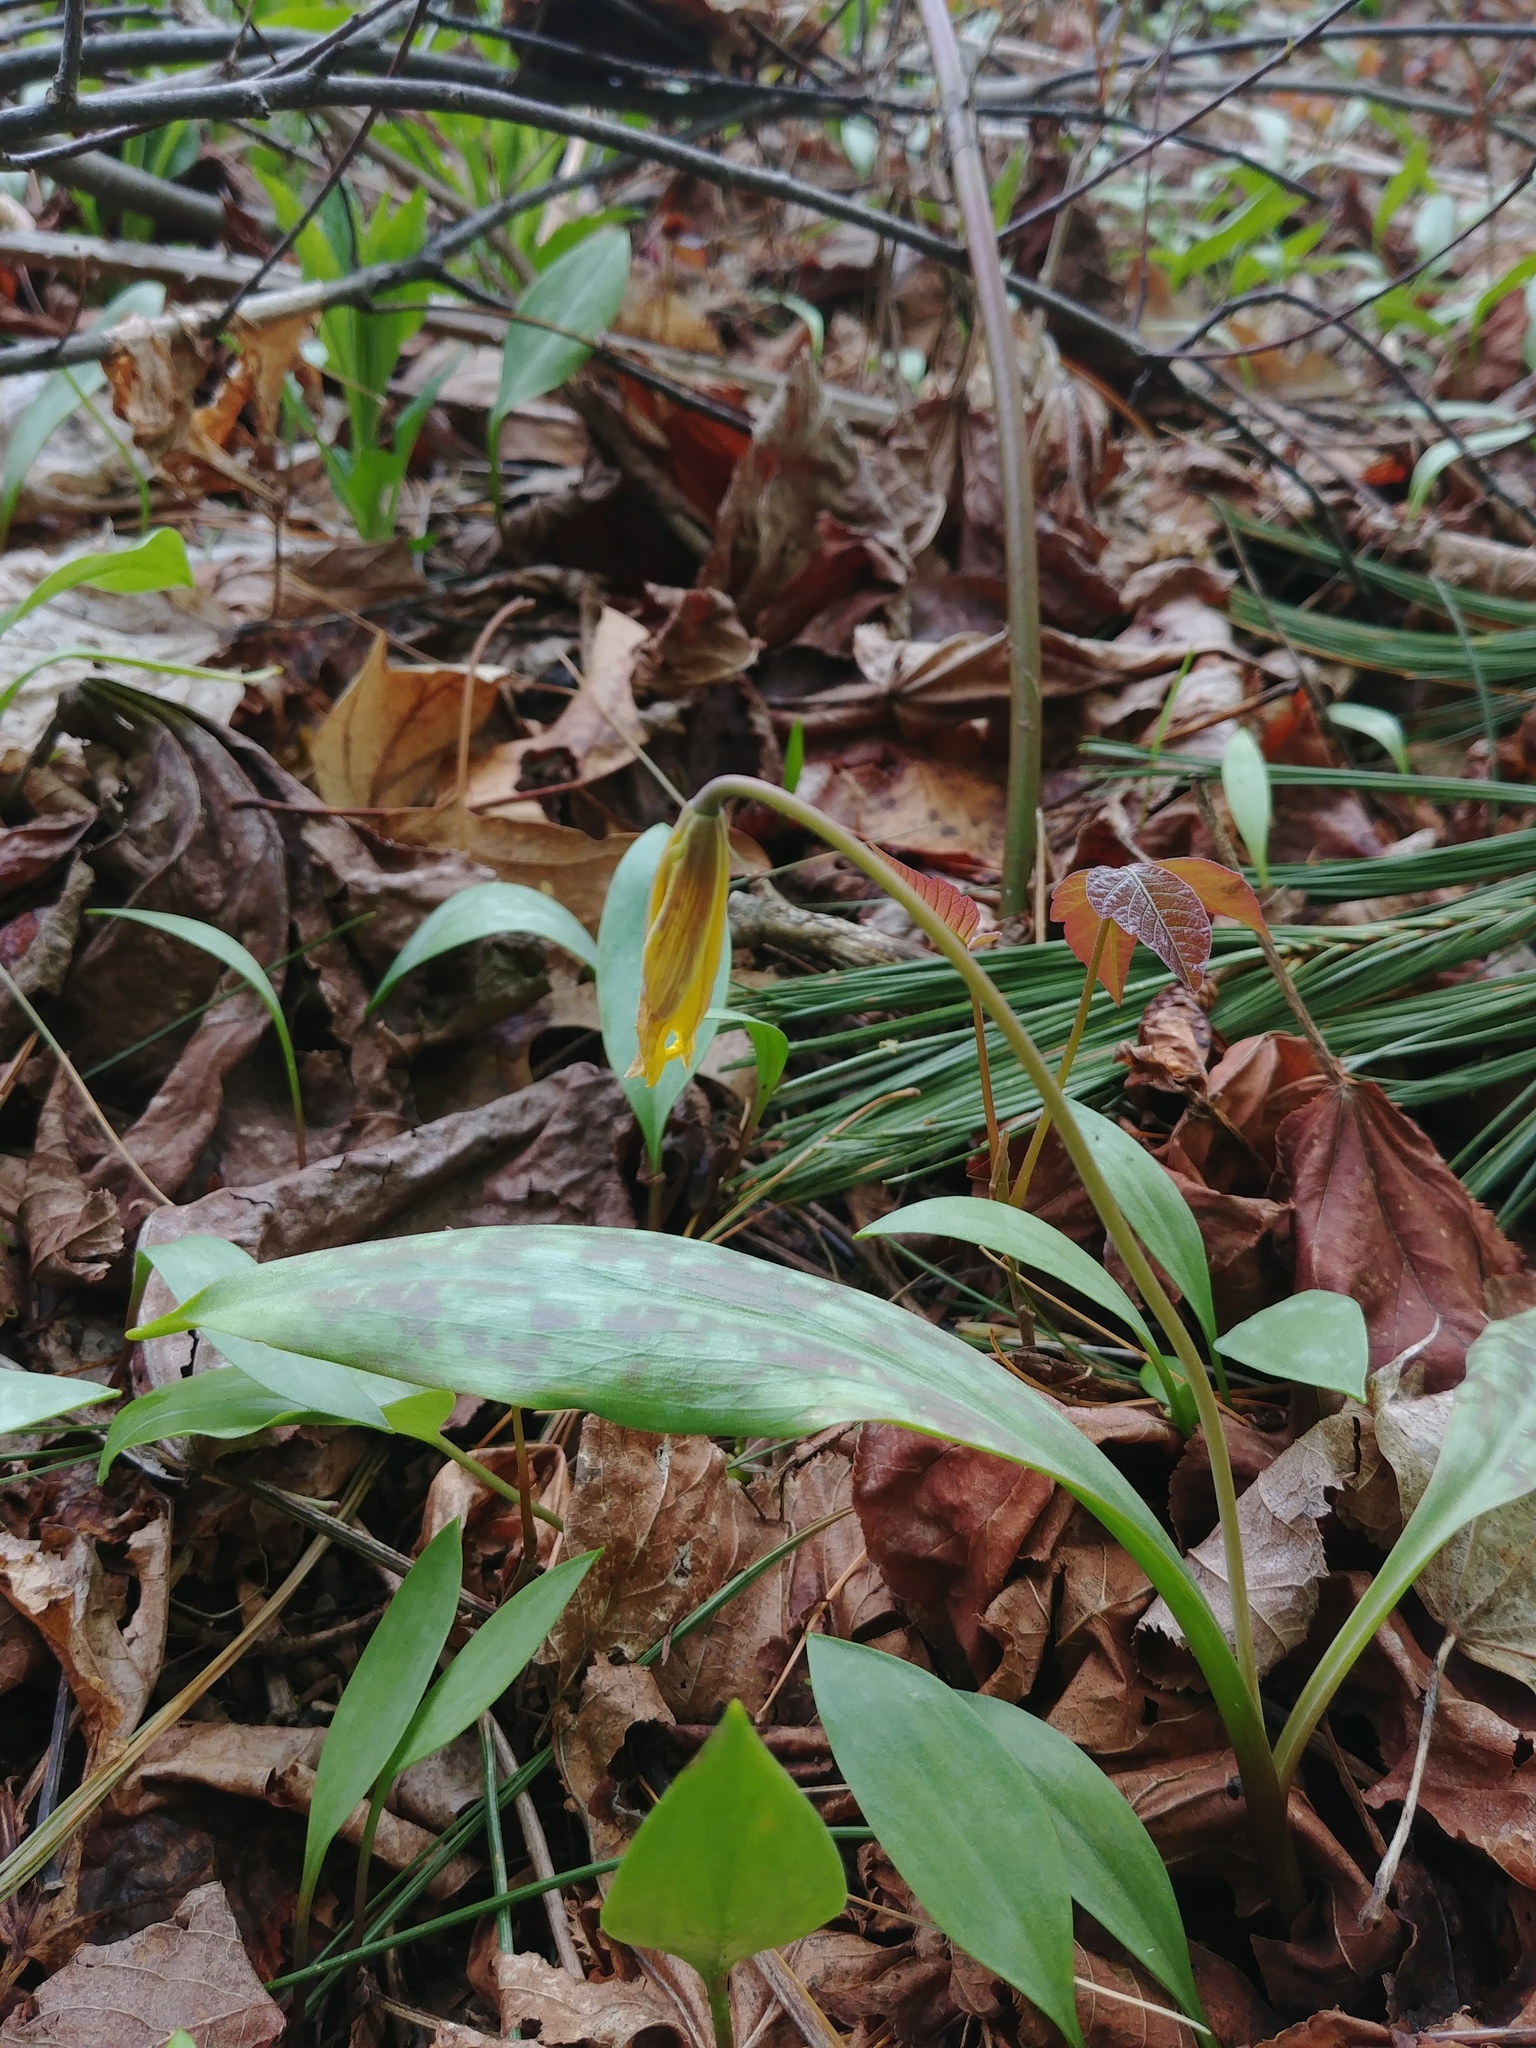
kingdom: Plantae
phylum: Tracheophyta
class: Liliopsida
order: Liliales
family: Liliaceae
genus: Erythronium
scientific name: Erythronium americanum
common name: Yellow adder's-tongue
